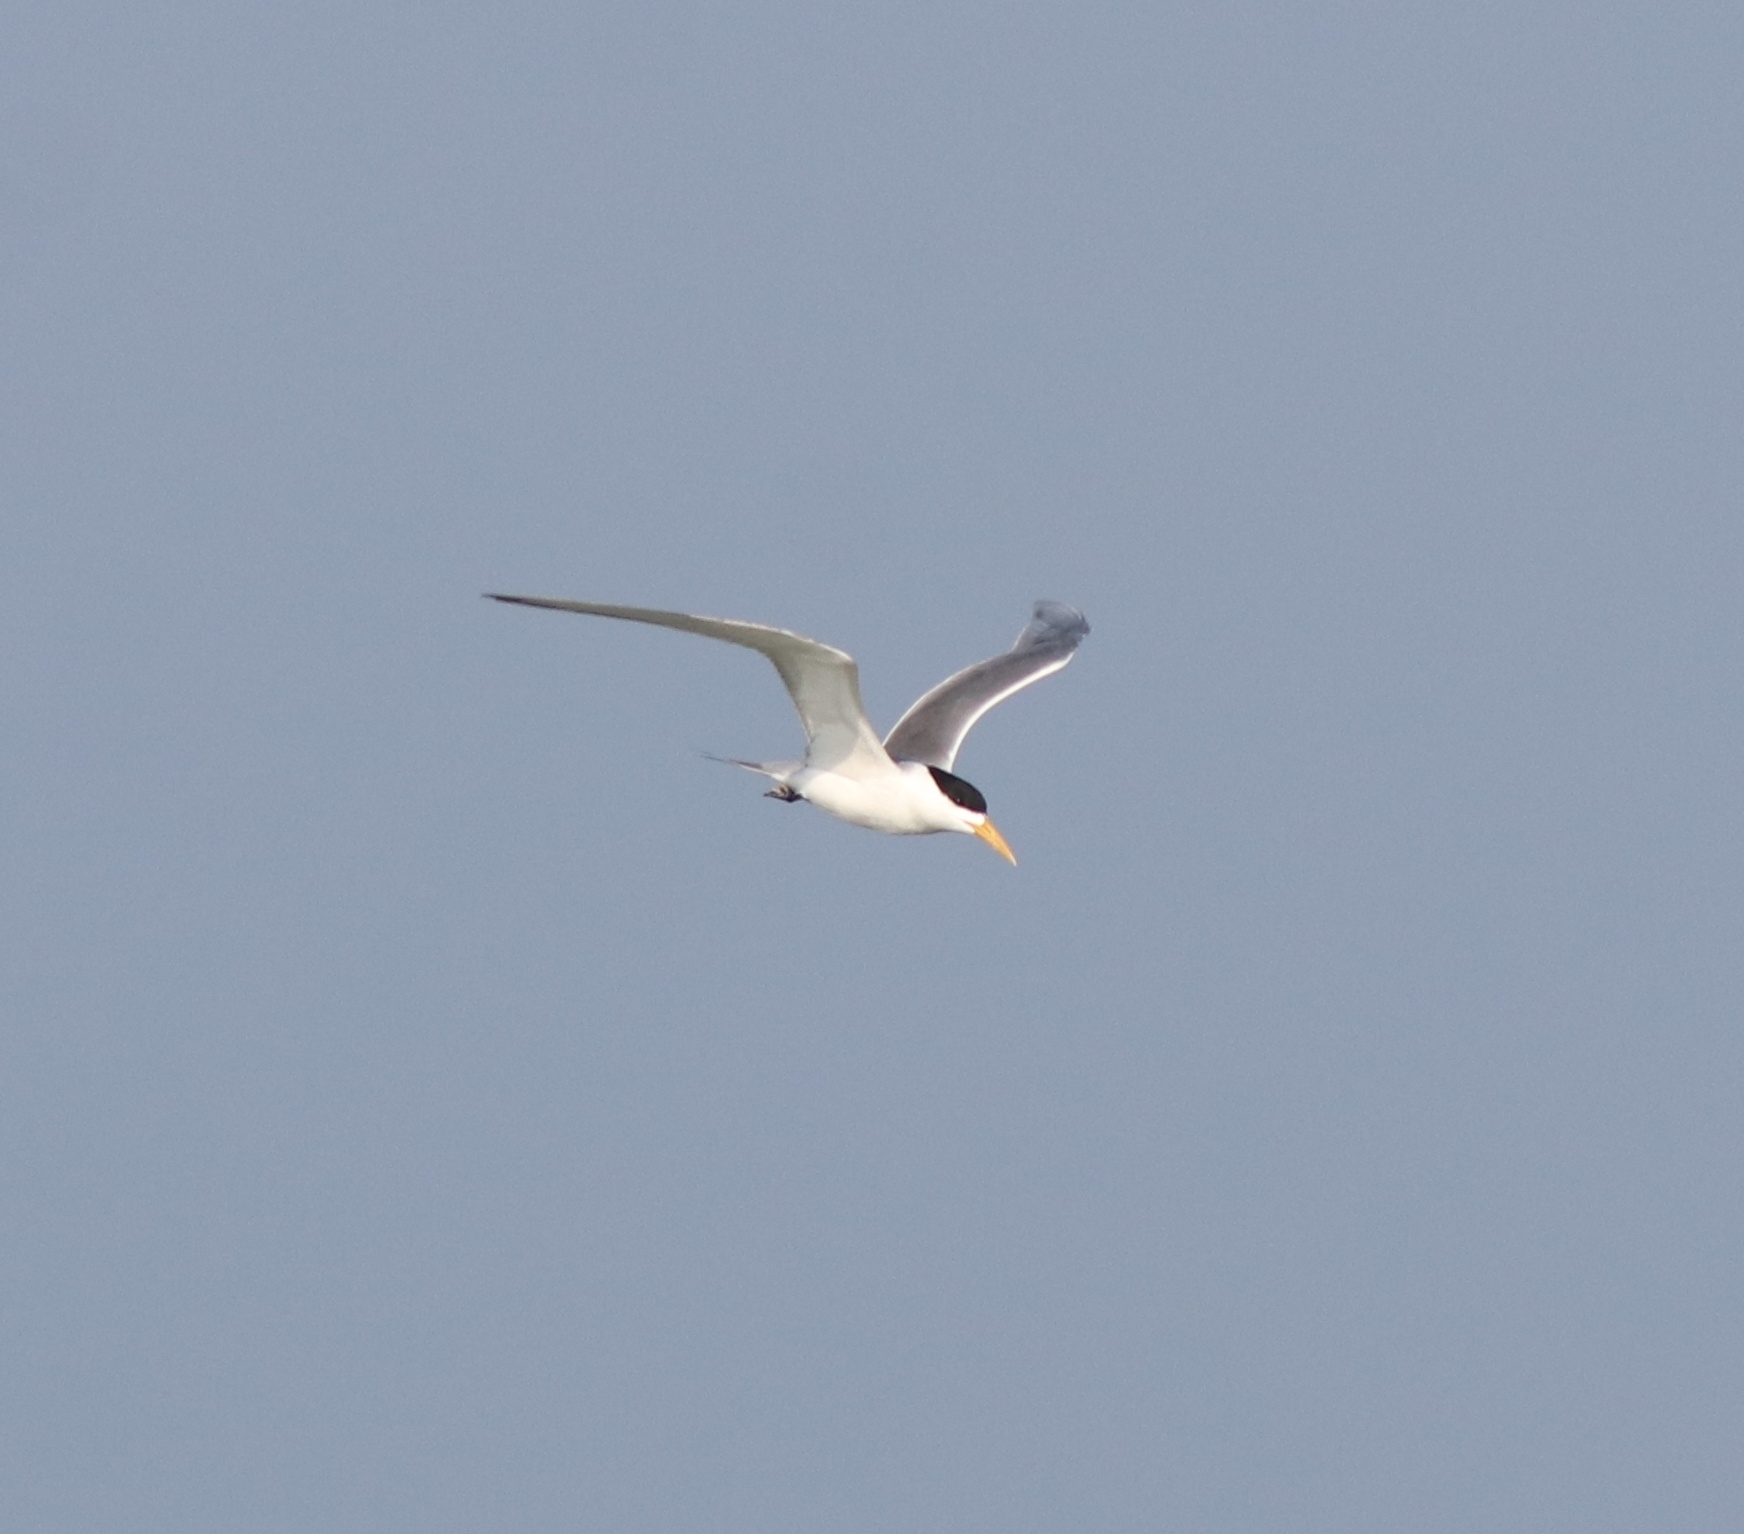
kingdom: Animalia
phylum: Chordata
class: Aves
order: Charadriiformes
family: Laridae
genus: Thalasseus
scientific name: Thalasseus bergii
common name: Greater crested tern
